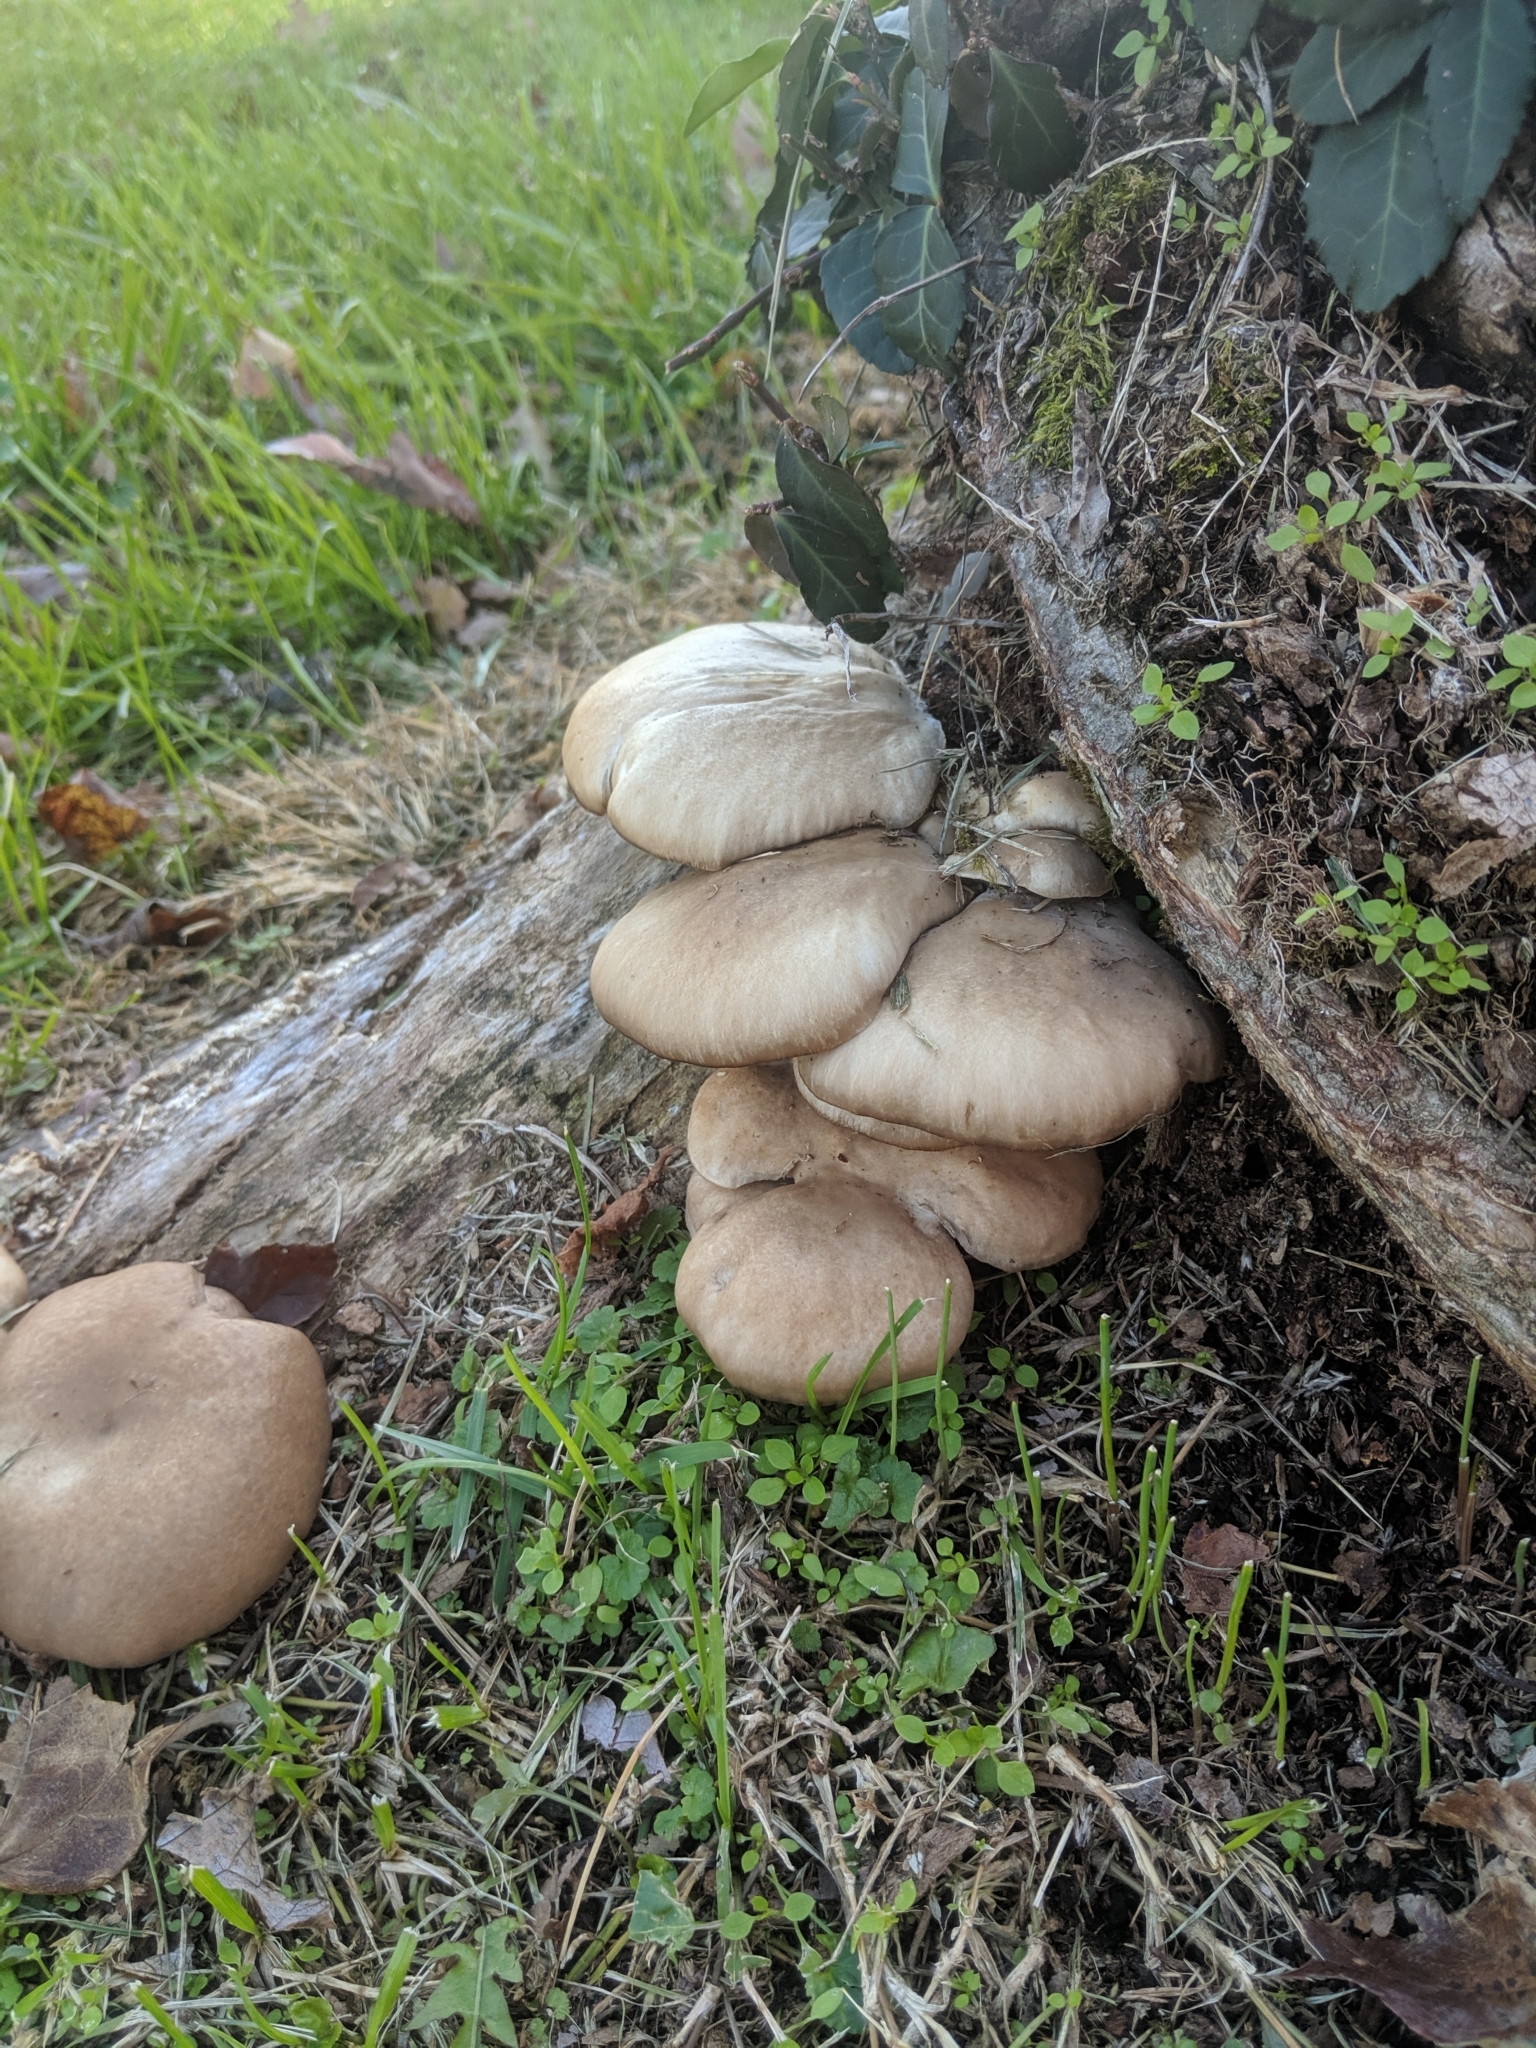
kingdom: Fungi
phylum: Basidiomycota
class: Agaricomycetes
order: Agaricales
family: Pleurotaceae
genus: Pleurotus
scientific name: Pleurotus ostreatus
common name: Oyster mushroom
